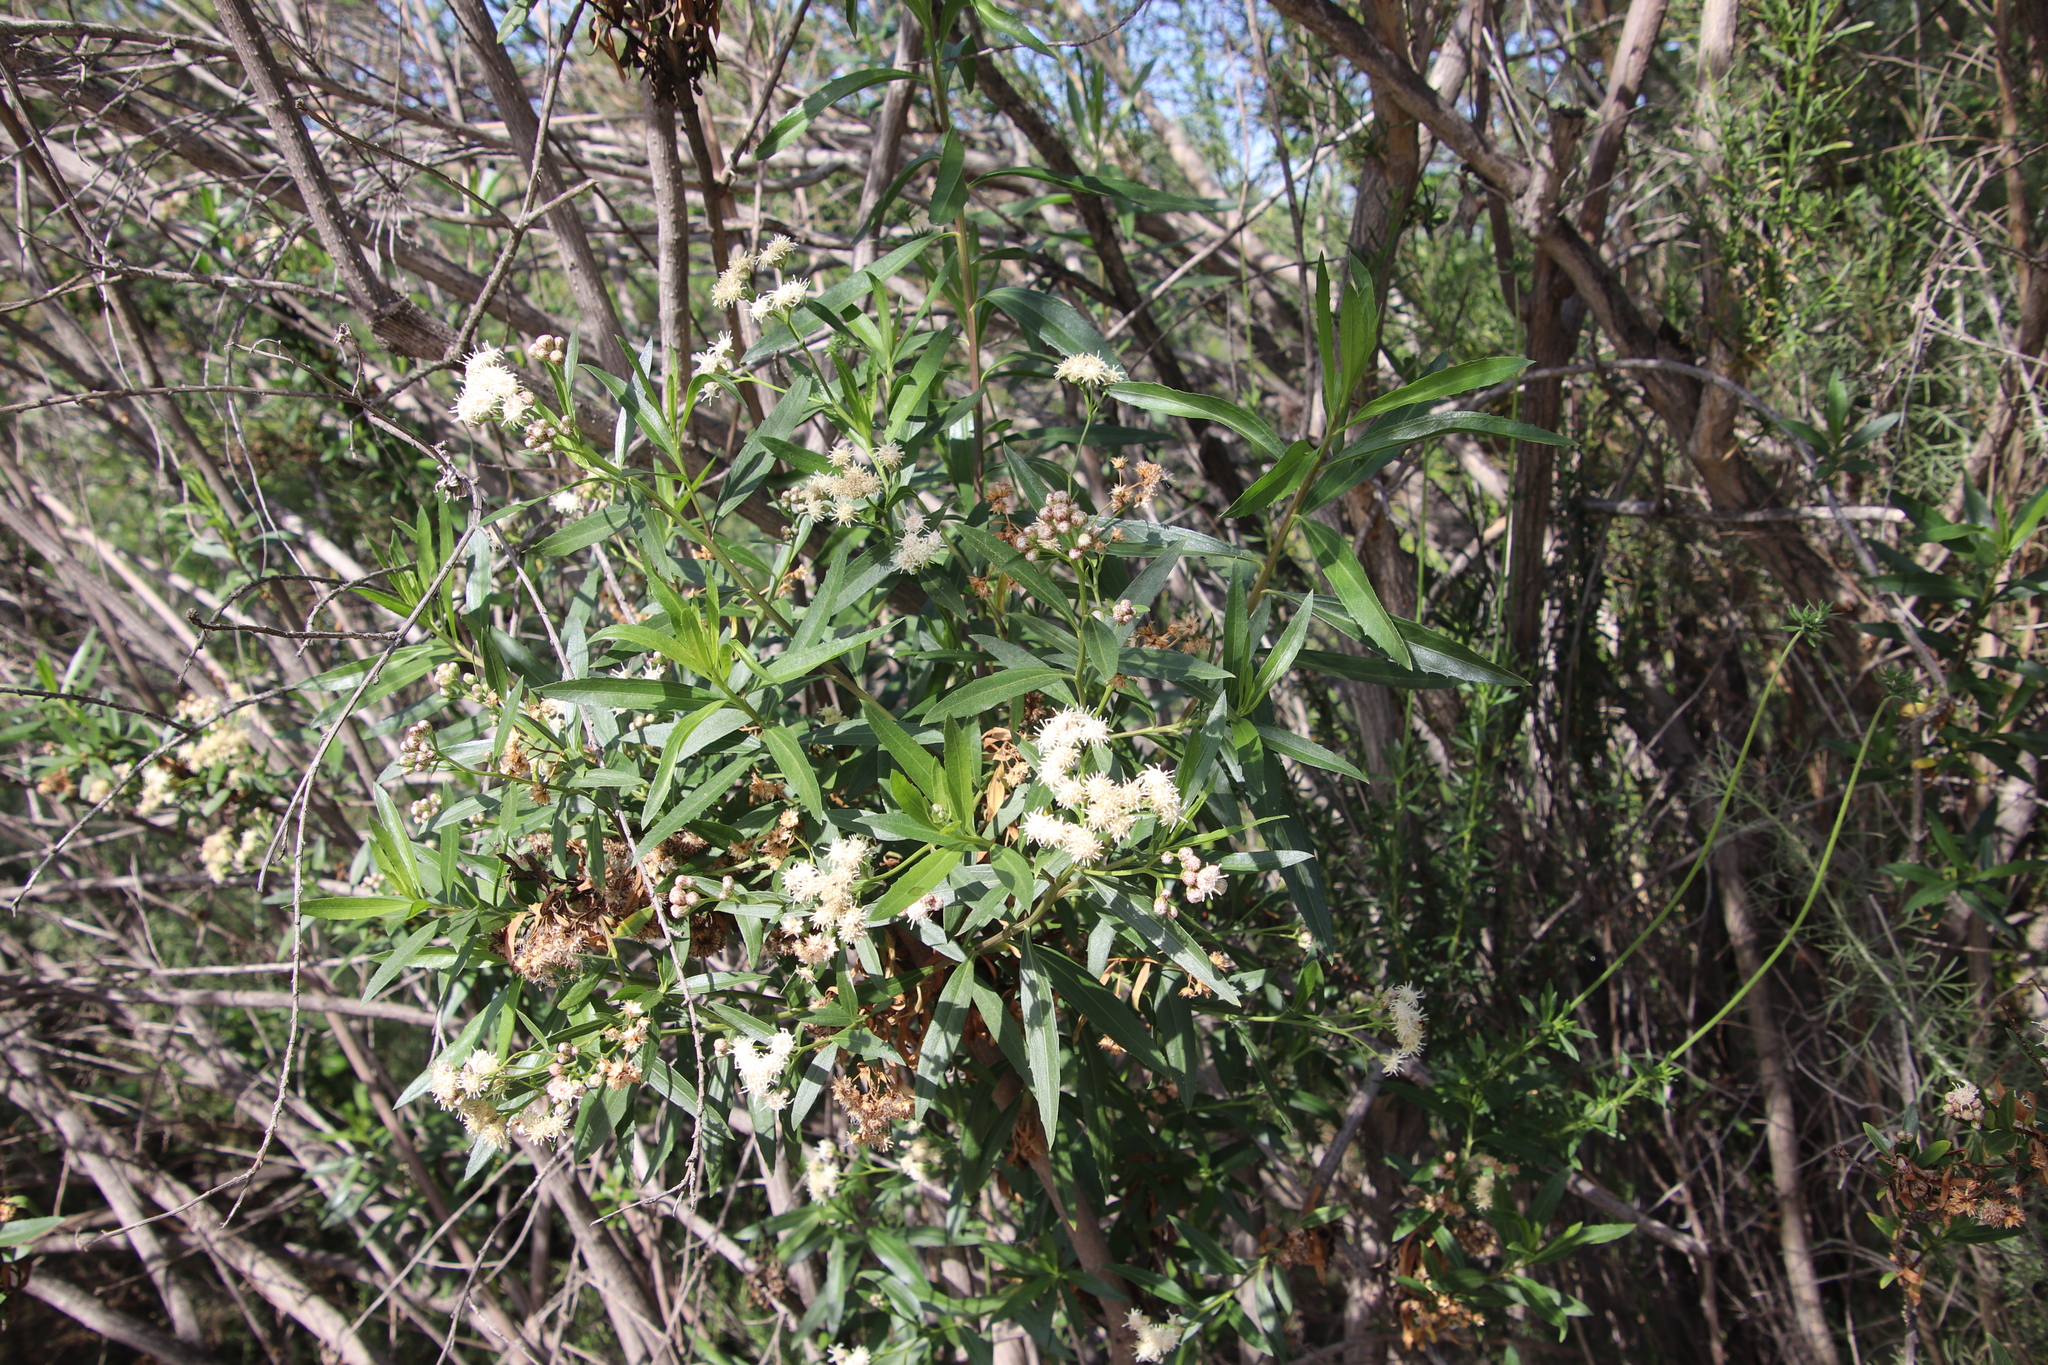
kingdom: Plantae
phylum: Tracheophyta
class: Magnoliopsida
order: Asterales
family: Asteraceae
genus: Baccharis
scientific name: Baccharis salicifolia
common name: Sticky baccharis
